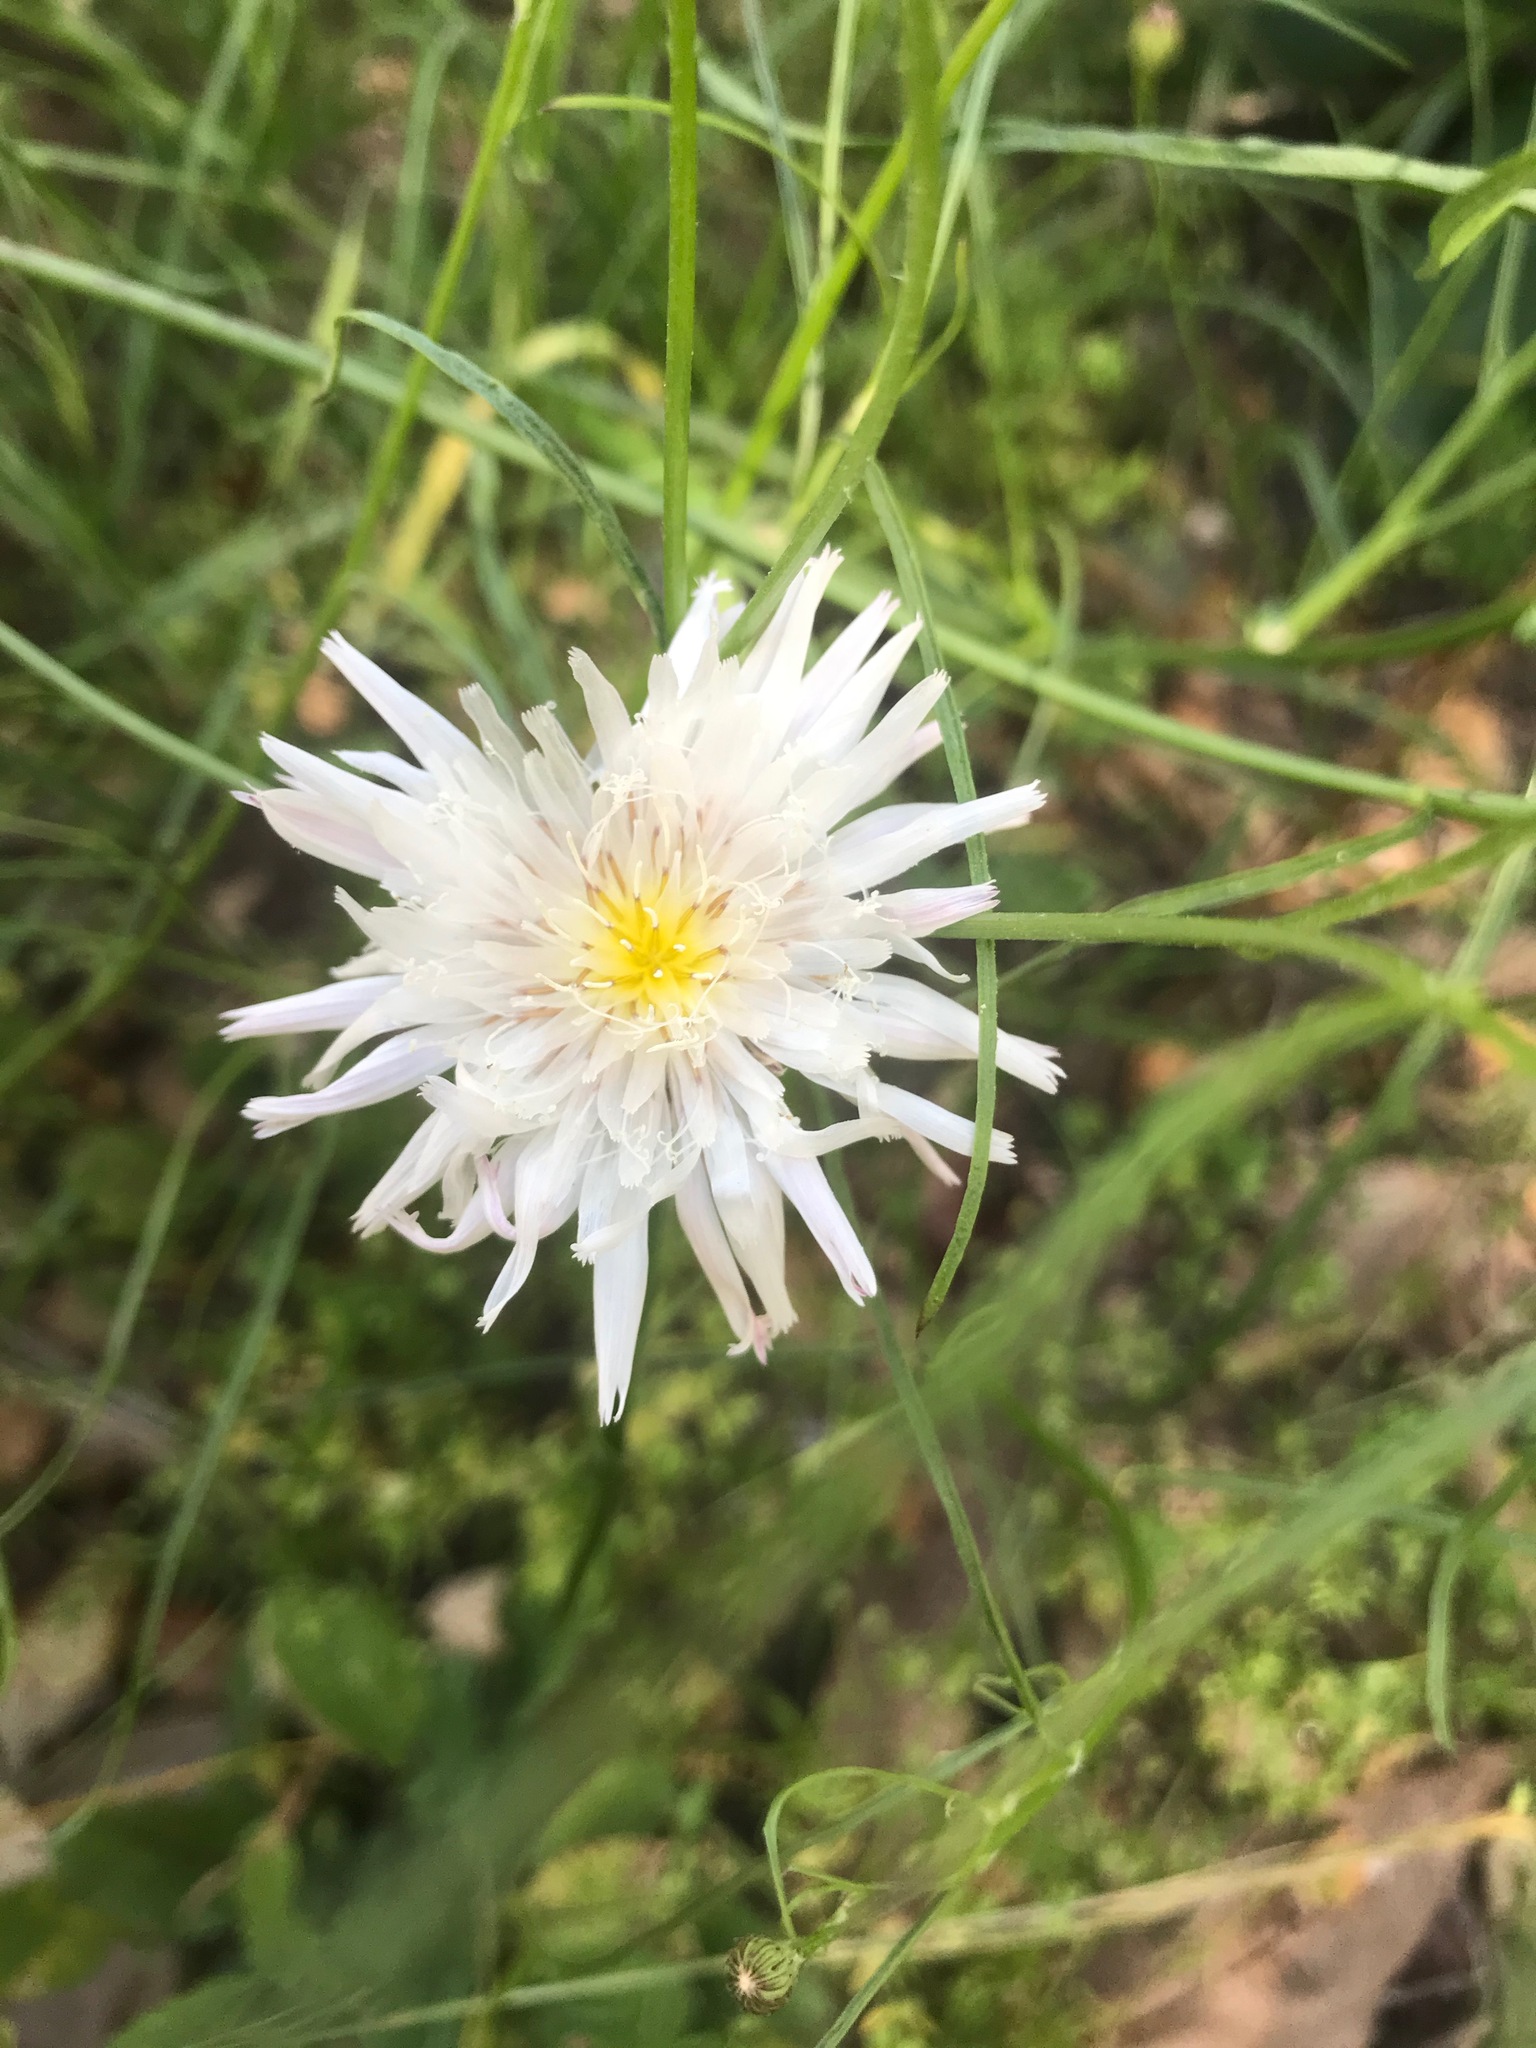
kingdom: Plantae
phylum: Tracheophyta
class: Magnoliopsida
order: Asterales
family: Asteraceae
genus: Malacothrix
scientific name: Malacothrix saxatilis
